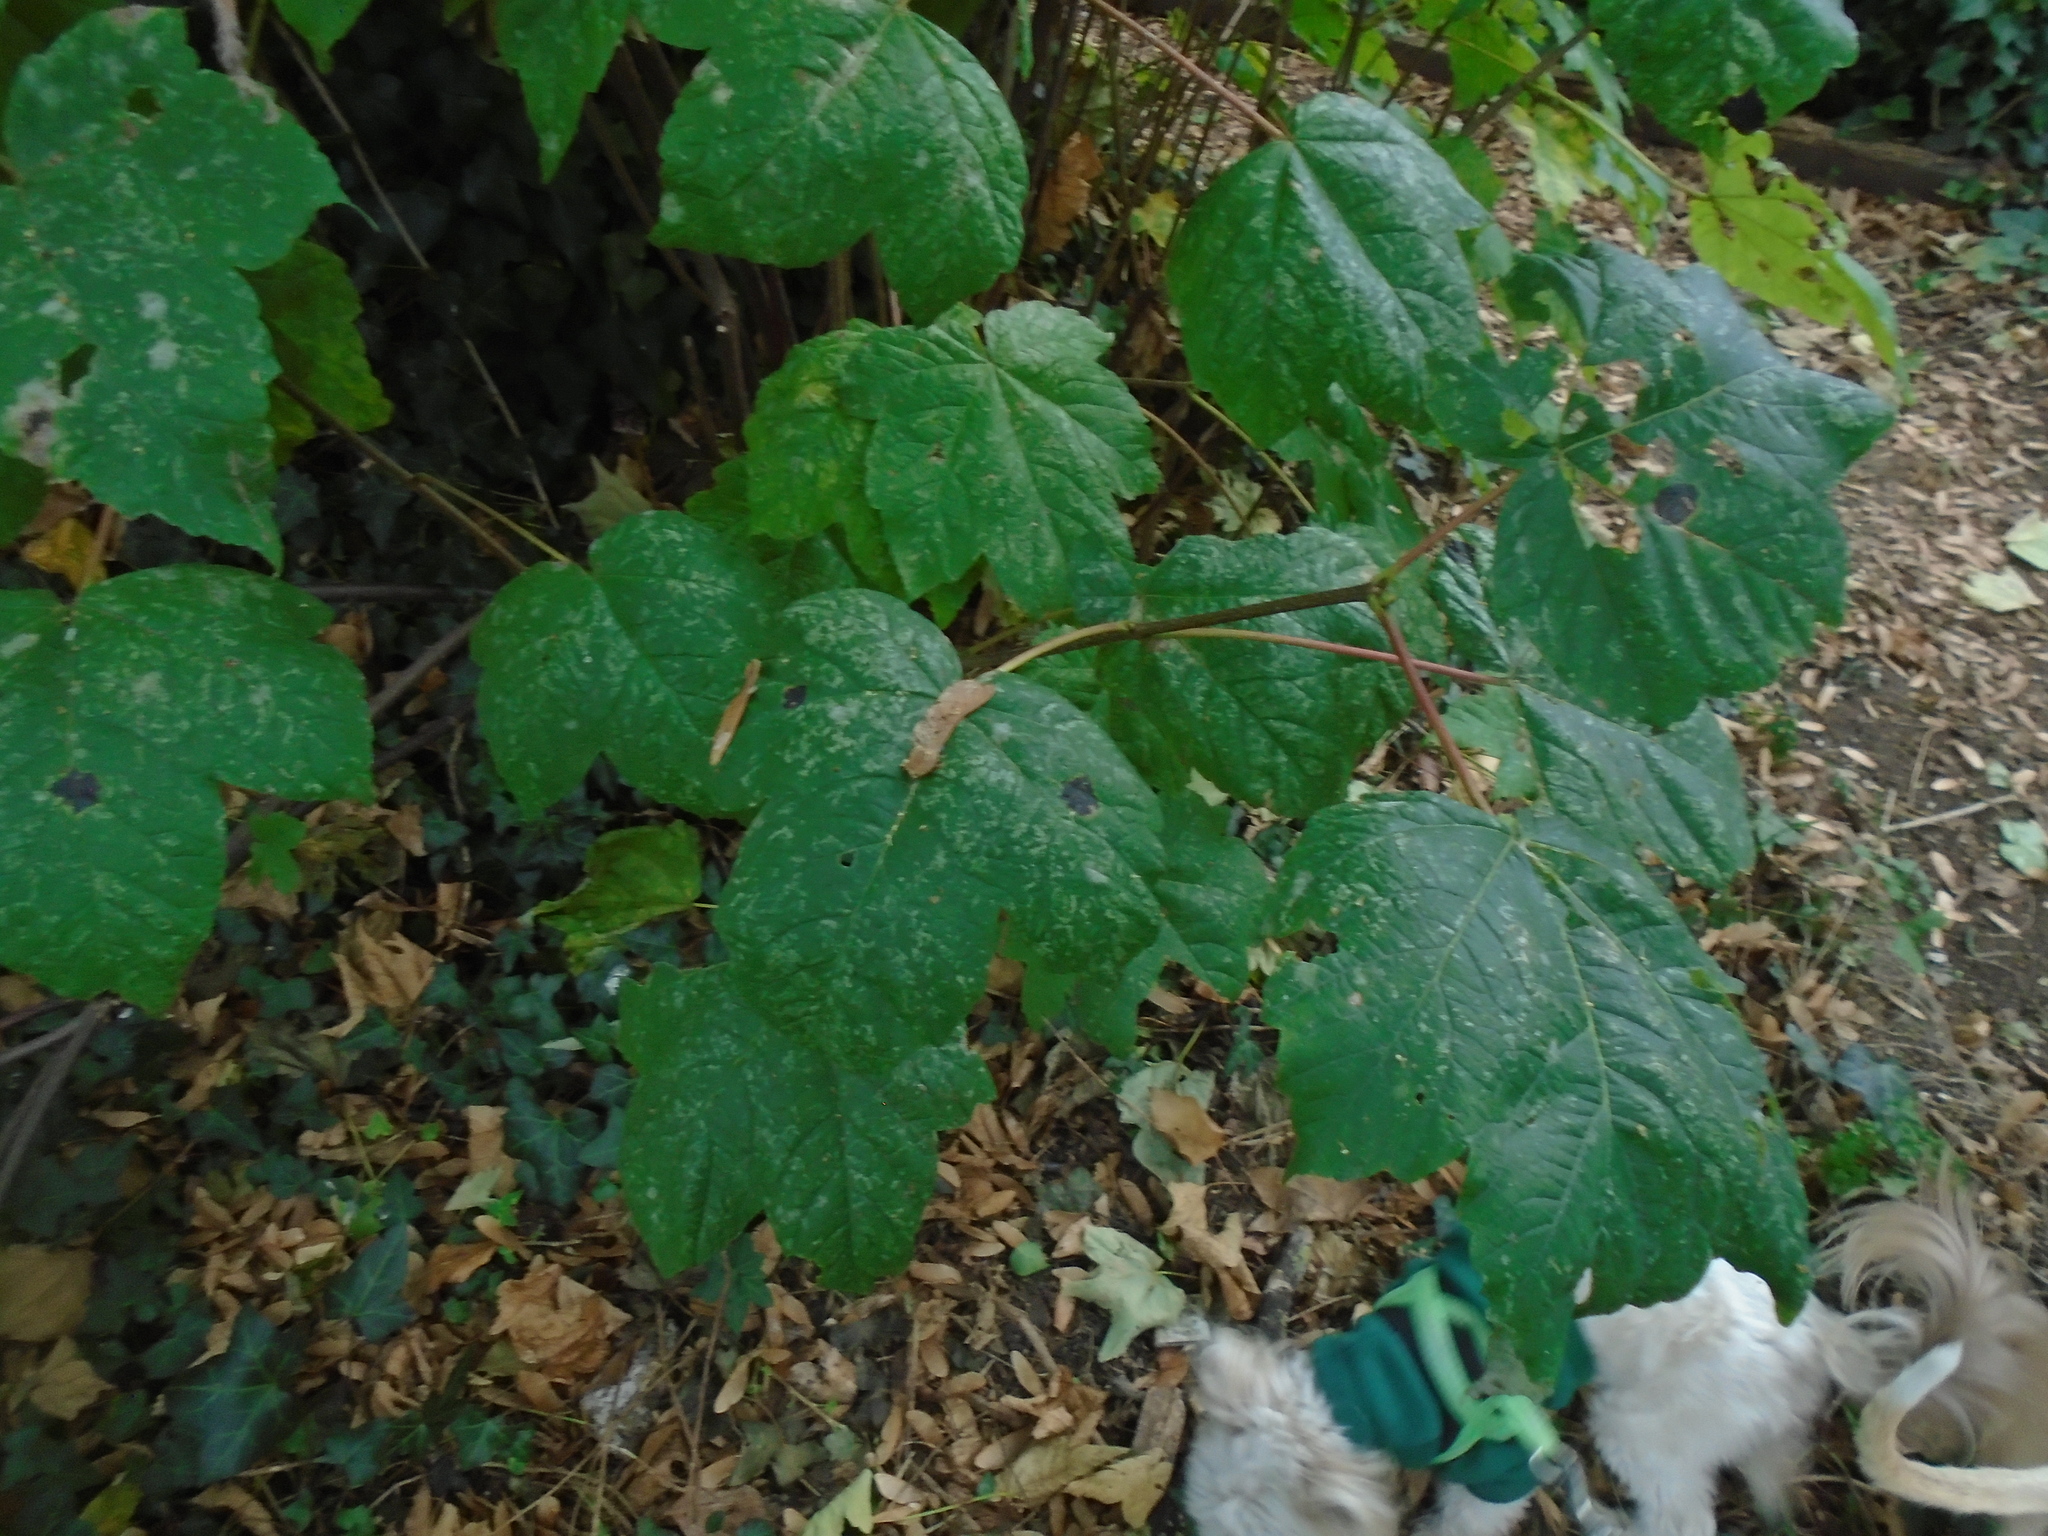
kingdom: Plantae
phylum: Tracheophyta
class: Magnoliopsida
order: Sapindales
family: Sapindaceae
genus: Acer
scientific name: Acer pseudoplatanus
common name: Sycamore
